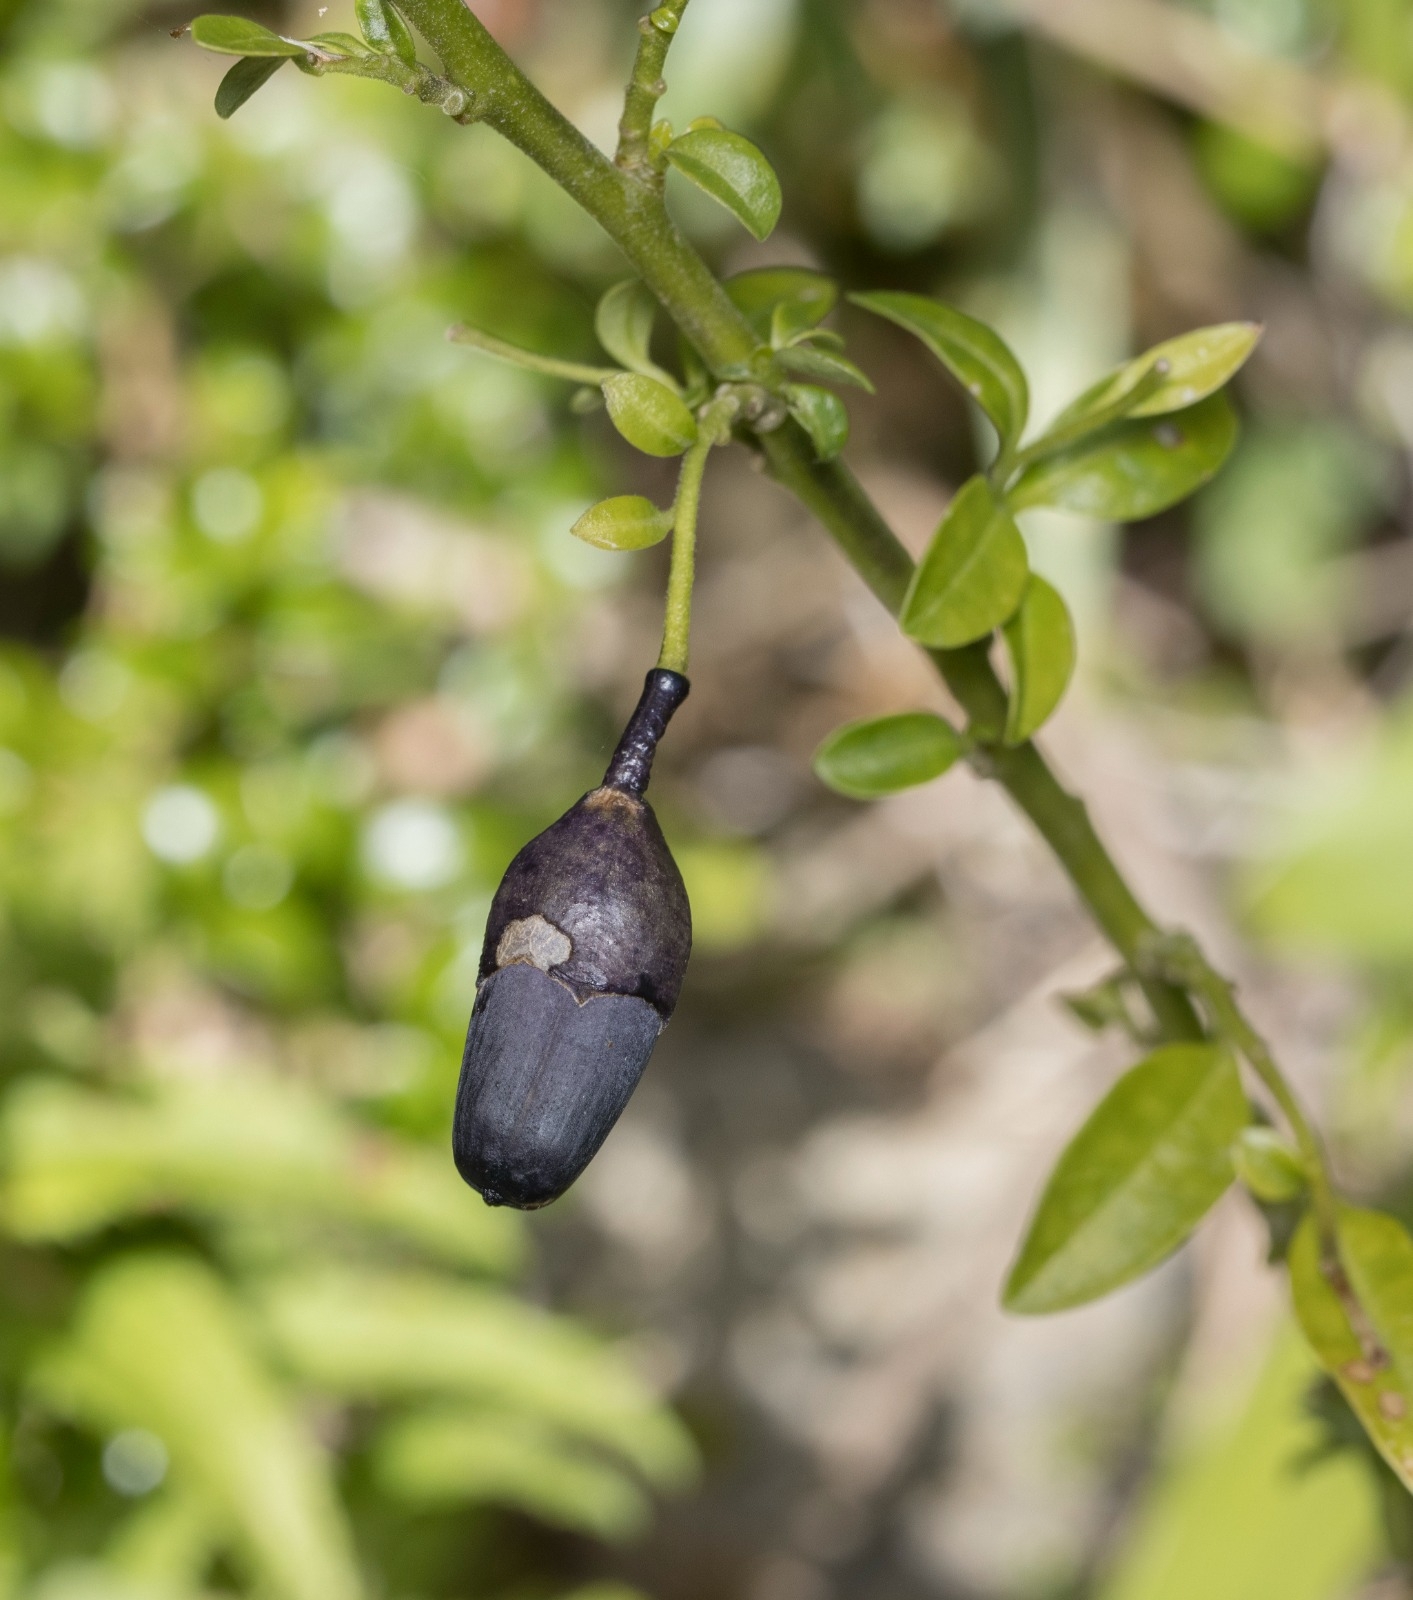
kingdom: Plantae
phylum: Tracheophyta
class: Magnoliopsida
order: Solanales
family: Solanaceae
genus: Vestia
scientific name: Vestia foetida
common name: Huevil
